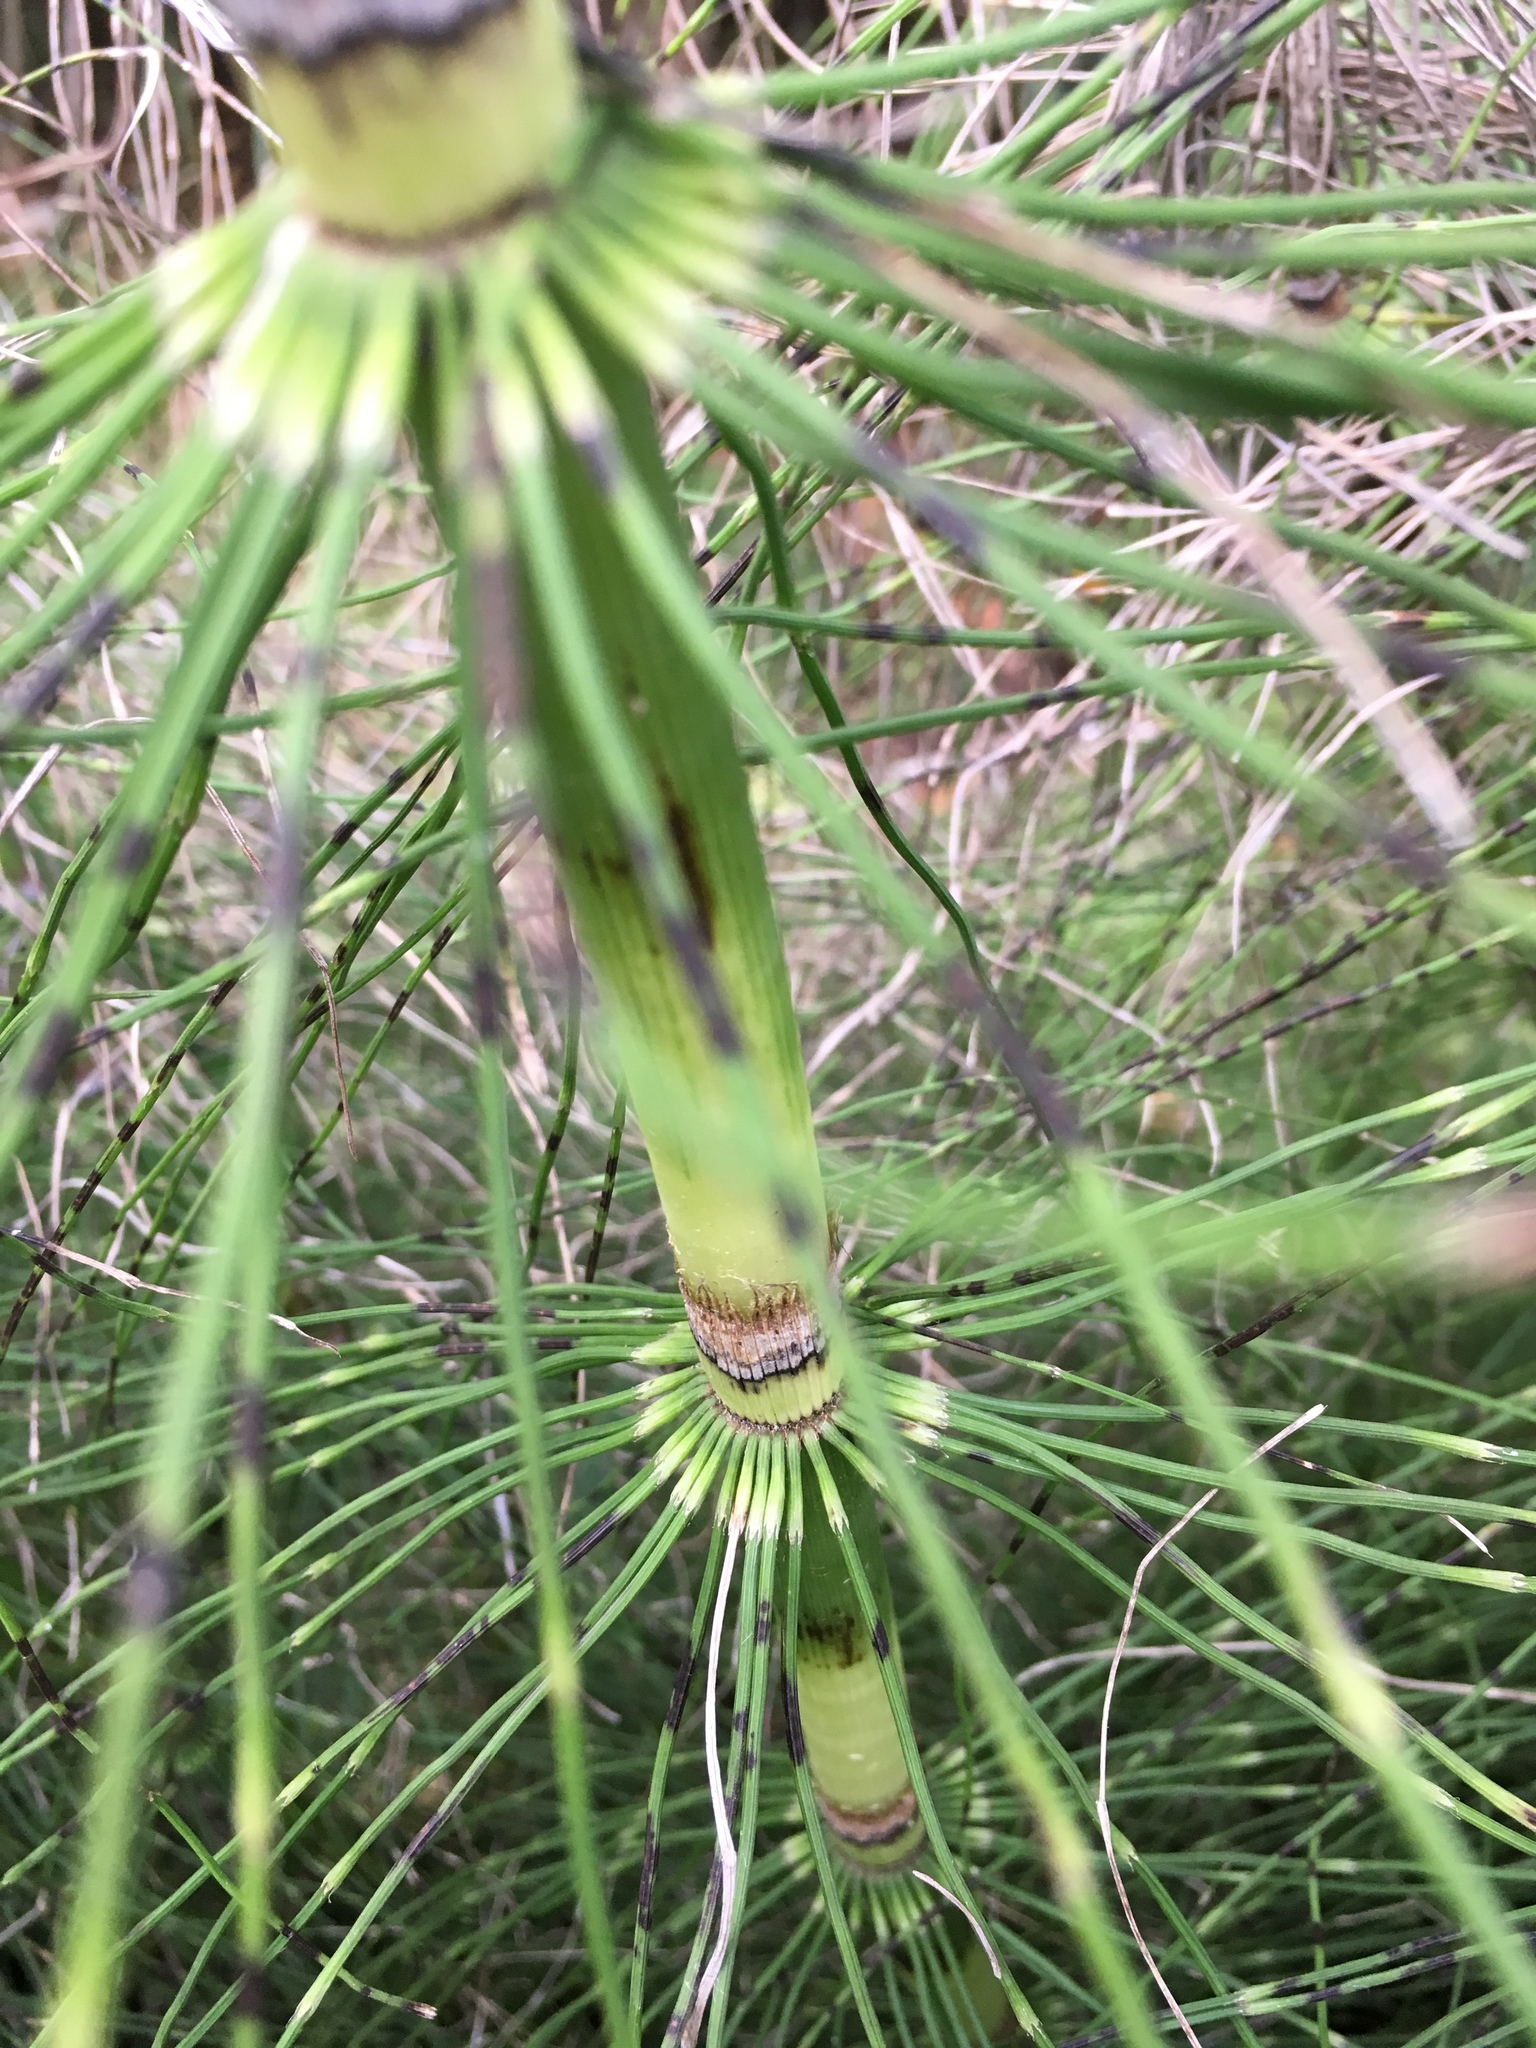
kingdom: Plantae
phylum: Tracheophyta
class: Polypodiopsida
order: Equisetales
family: Equisetaceae
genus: Equisetum
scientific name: Equisetum braunii
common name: Braun's horsetail
